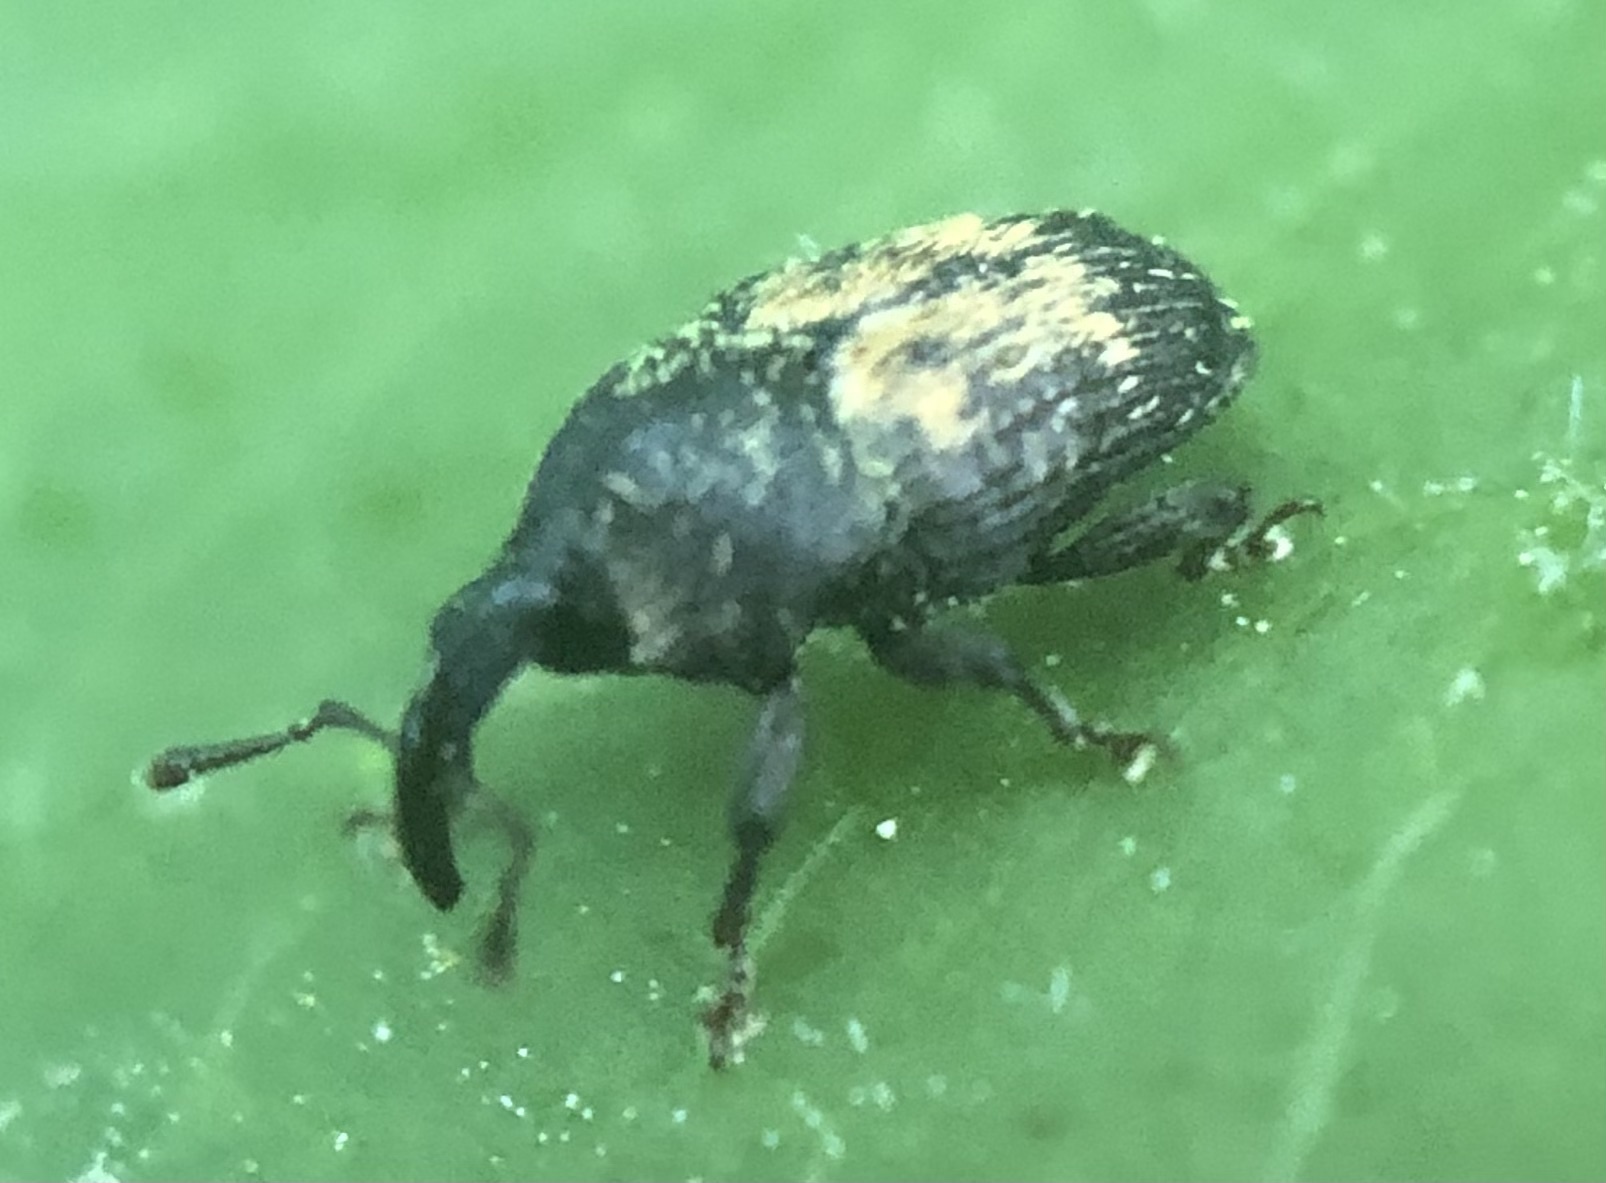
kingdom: Animalia
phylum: Arthropoda
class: Insecta
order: Coleoptera
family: Curculionidae
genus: Glyptobaris
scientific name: Glyptobaris lecontei
